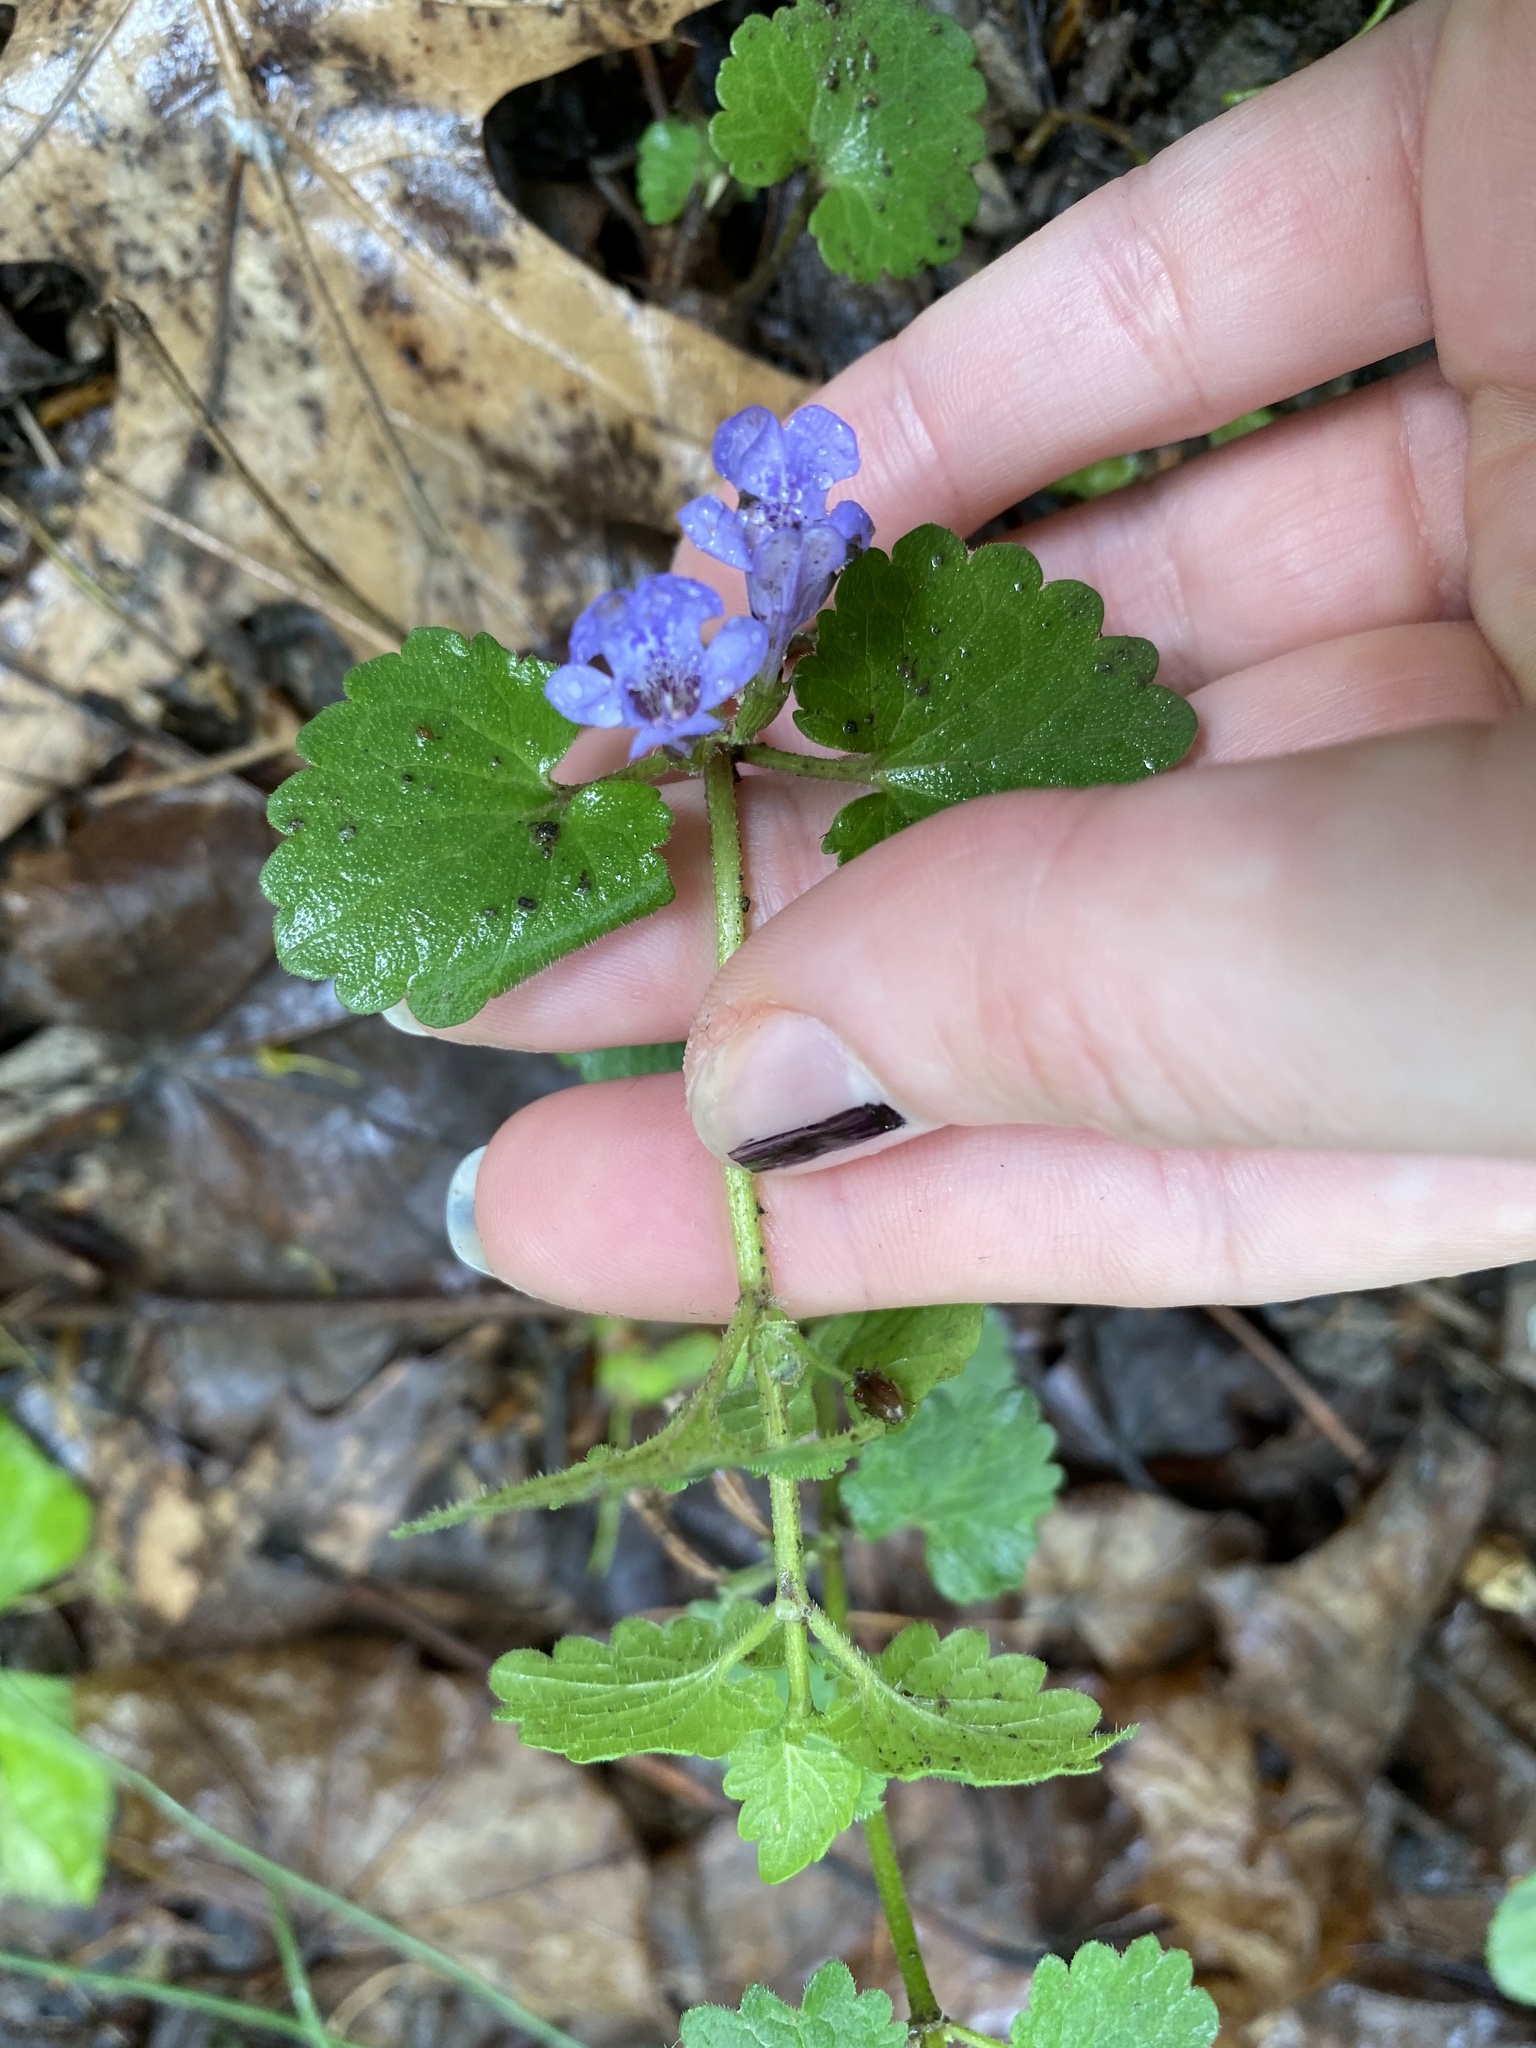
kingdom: Plantae
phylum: Tracheophyta
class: Magnoliopsida
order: Lamiales
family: Lamiaceae
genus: Glechoma
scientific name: Glechoma hederacea
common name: Ground ivy
